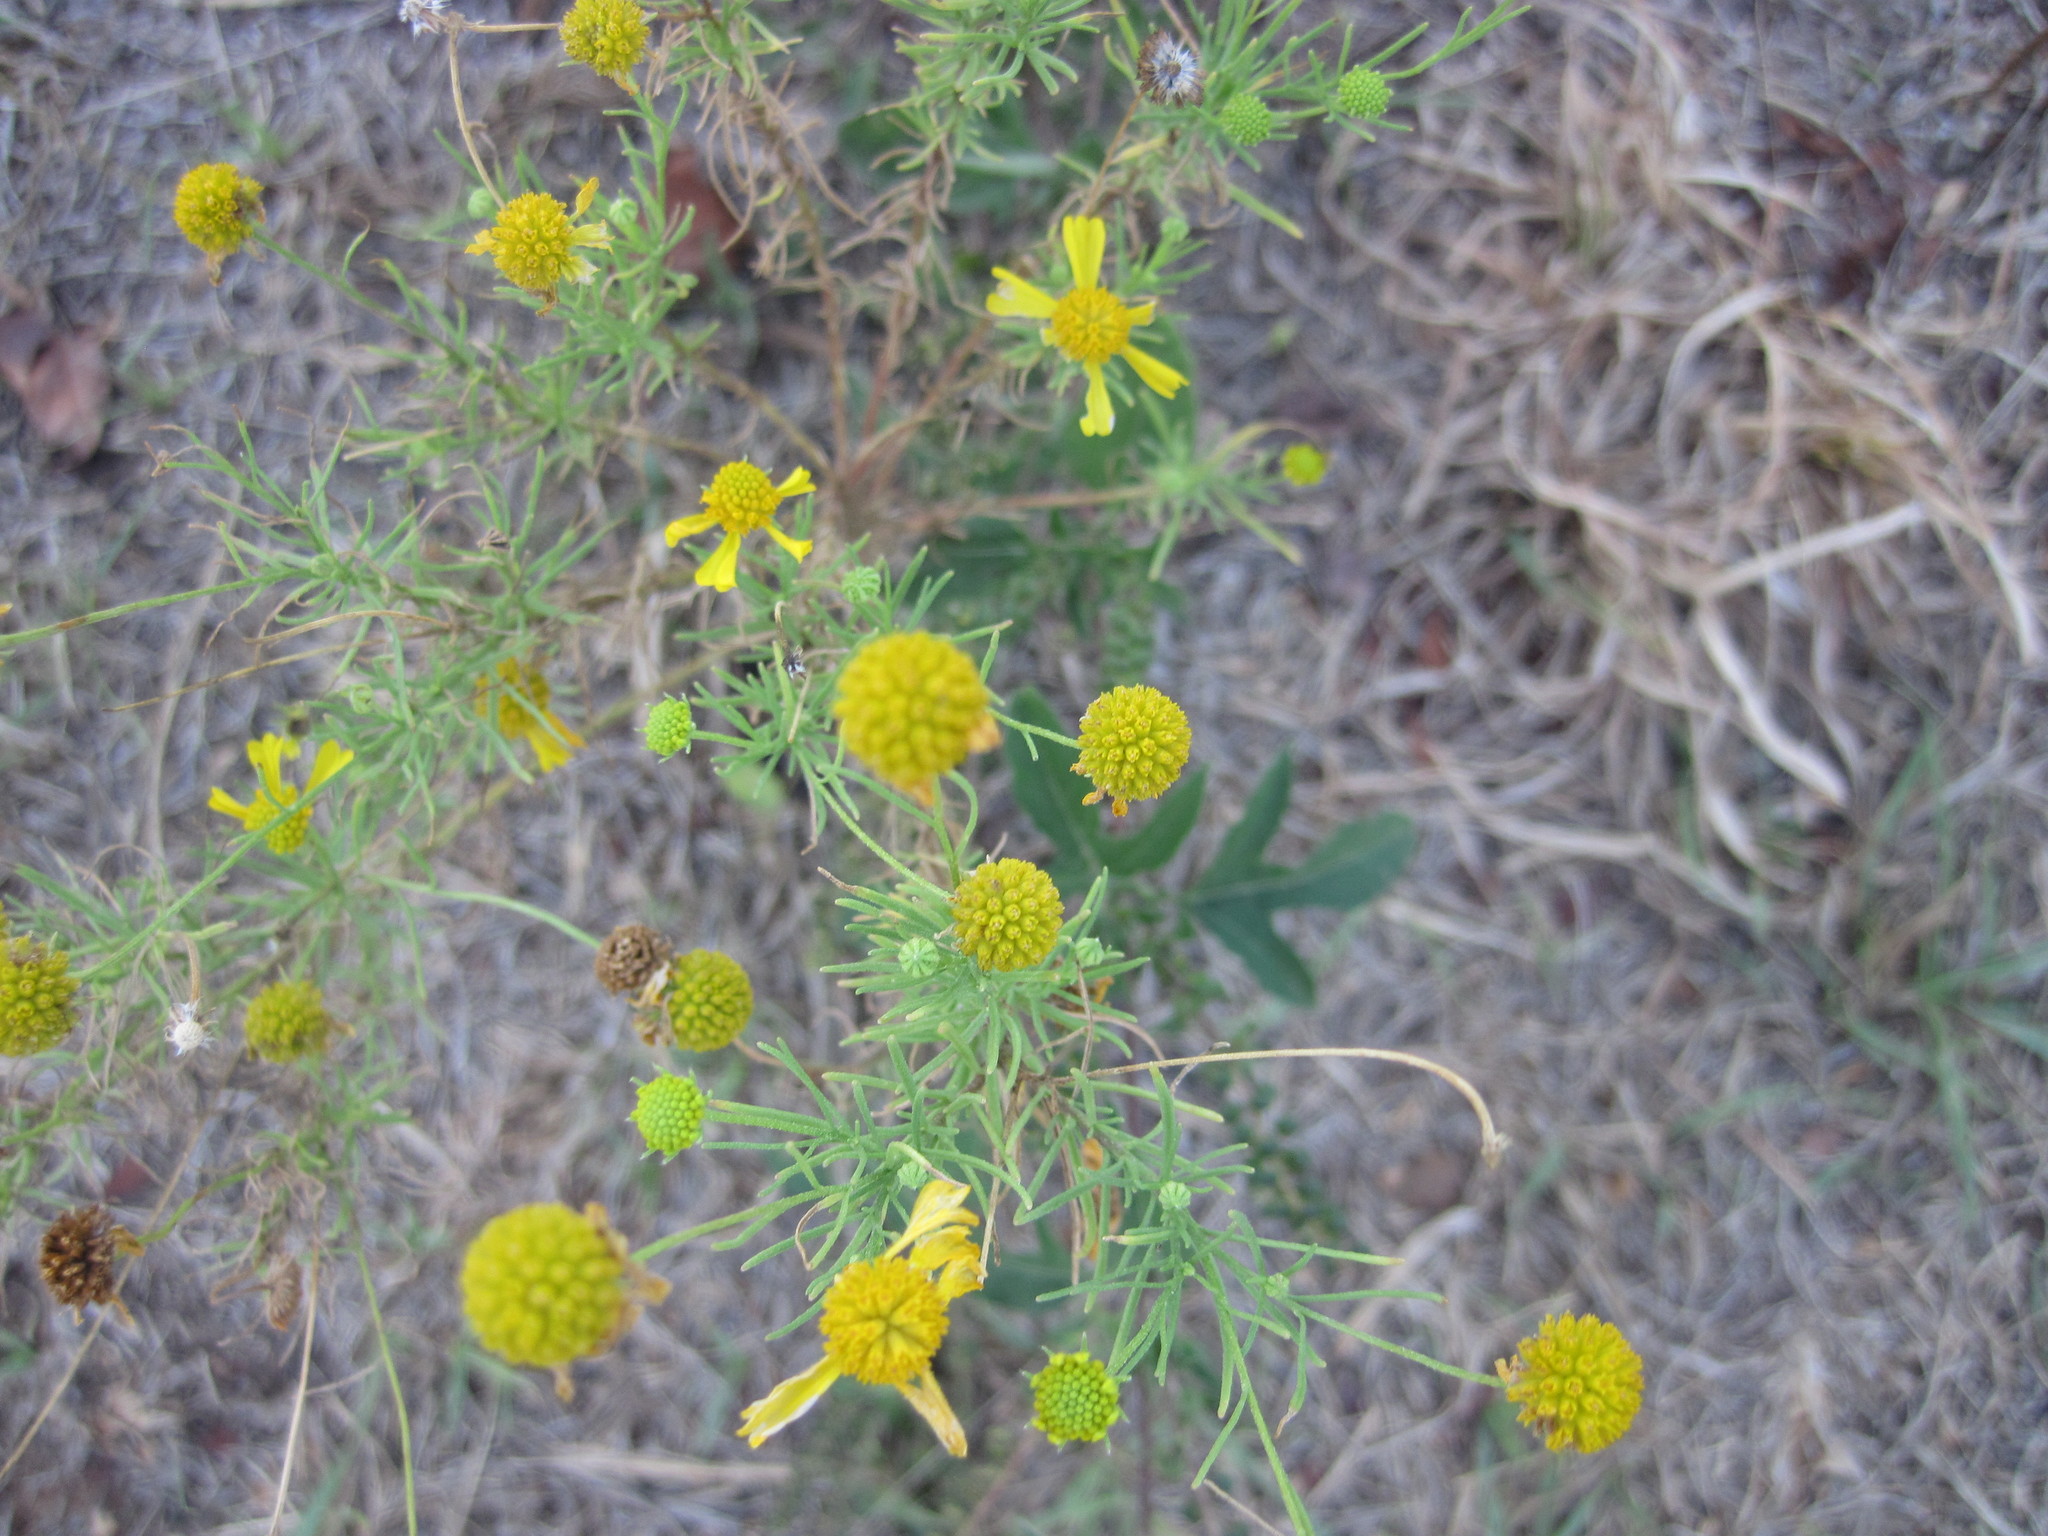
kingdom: Plantae
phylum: Tracheophyta
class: Magnoliopsida
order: Asterales
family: Asteraceae
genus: Helenium
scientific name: Helenium amarum
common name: Bitter sneezeweed
